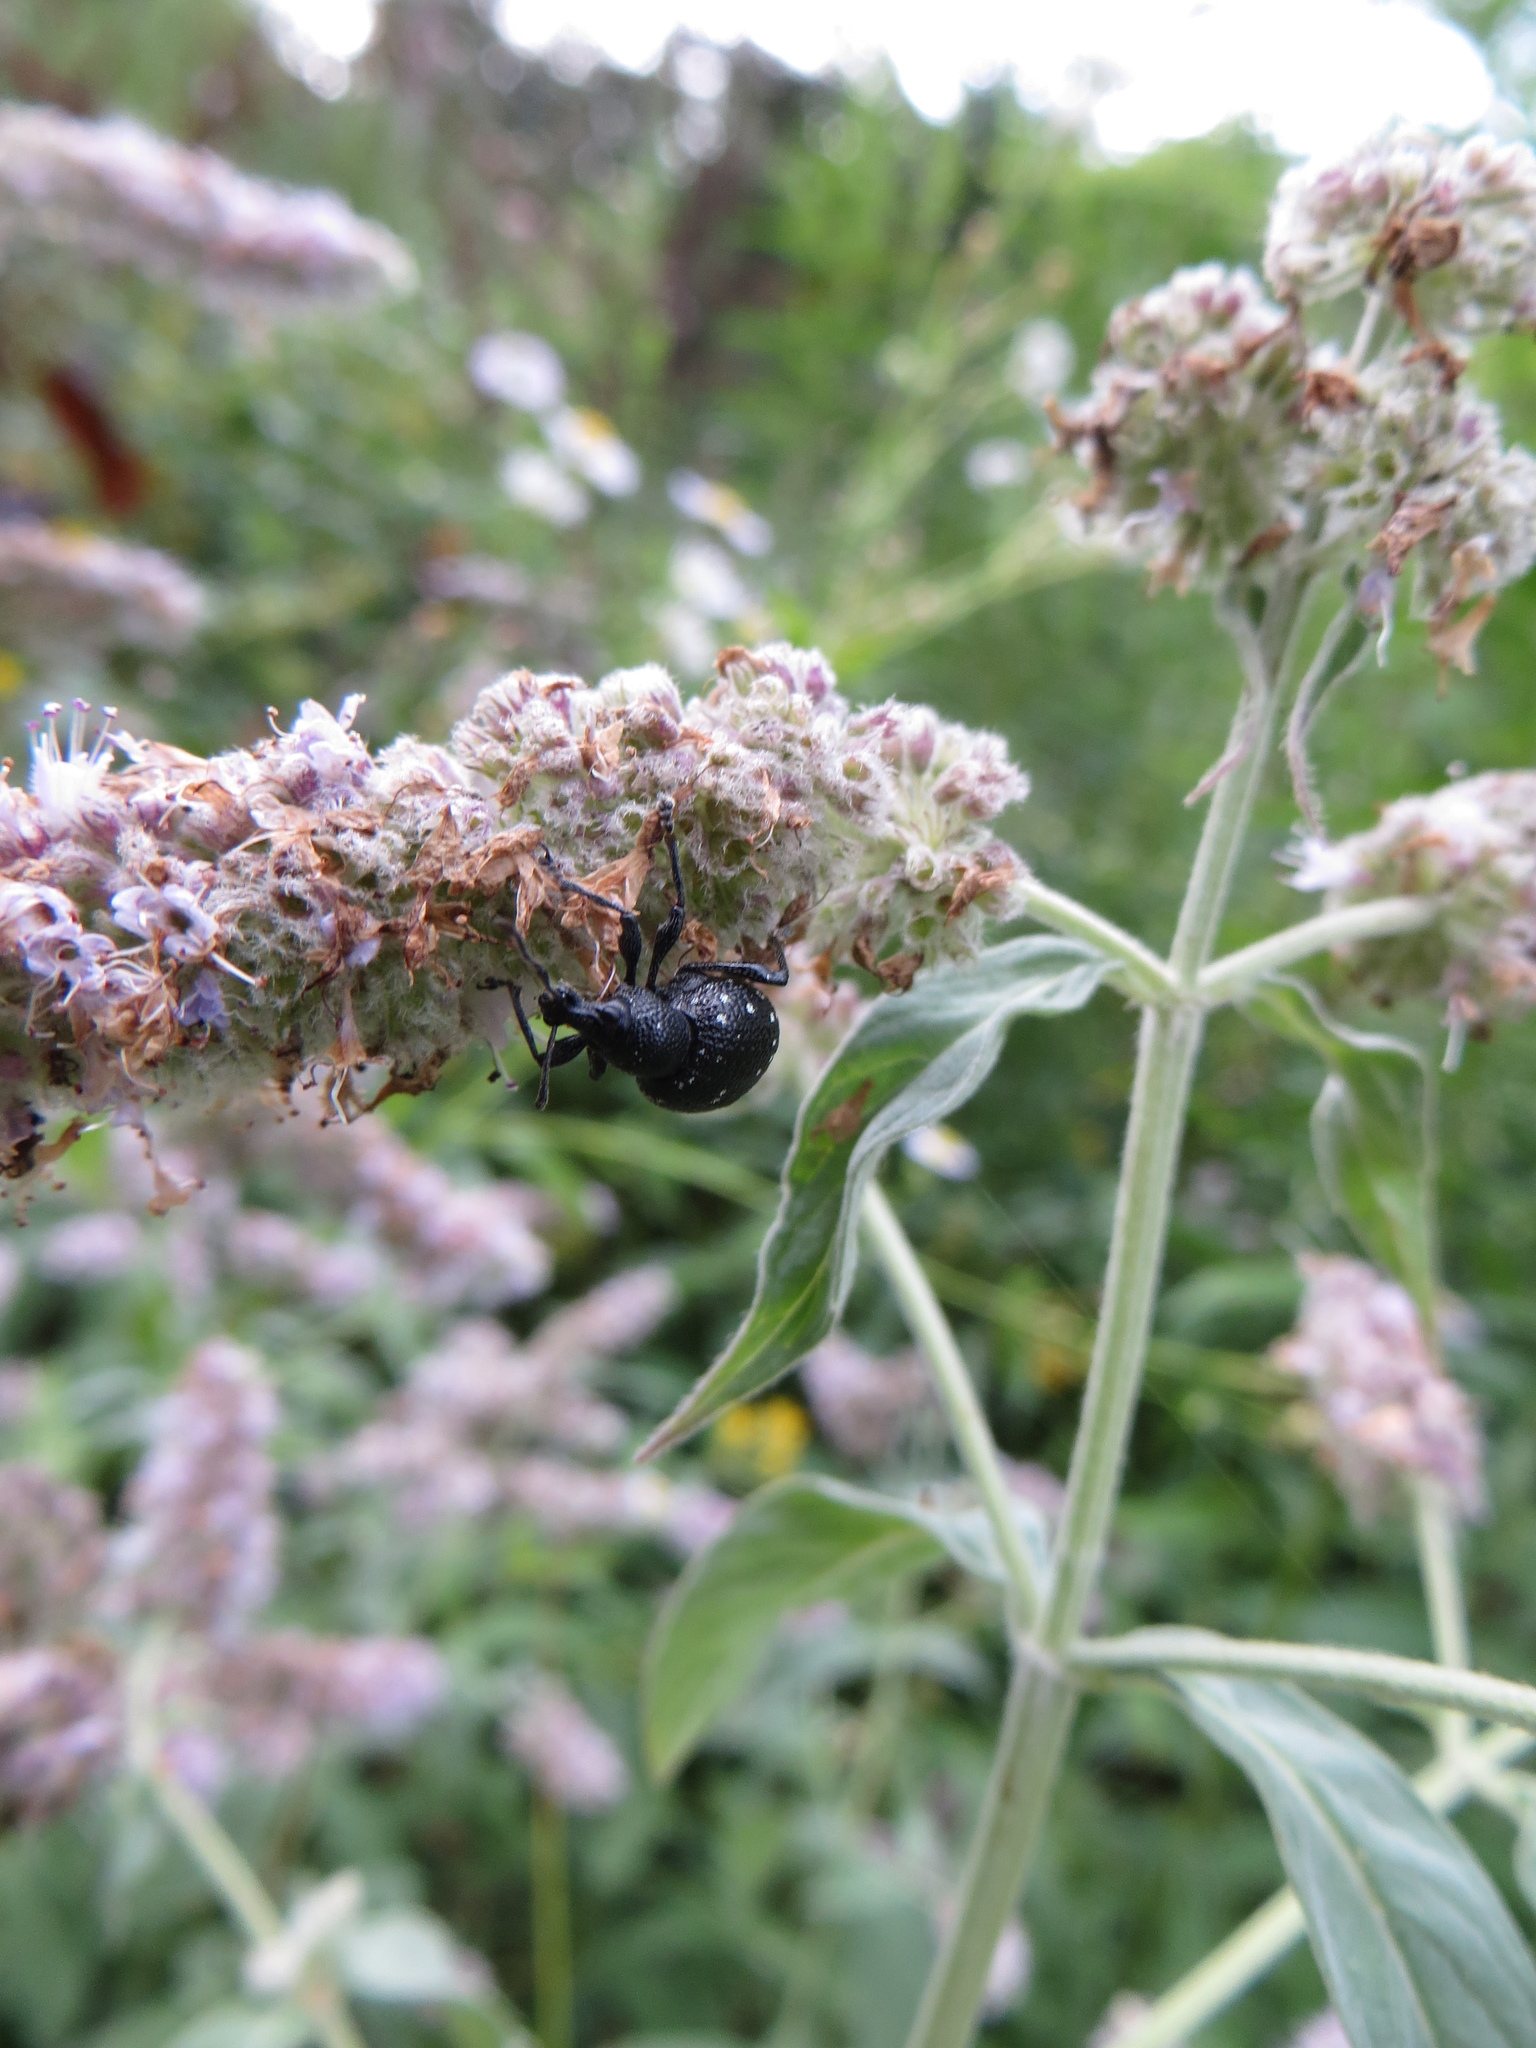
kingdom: Animalia
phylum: Arthropoda
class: Insecta
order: Coleoptera
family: Curculionidae
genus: Otiorhynchus
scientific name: Otiorhynchus gemmatus
